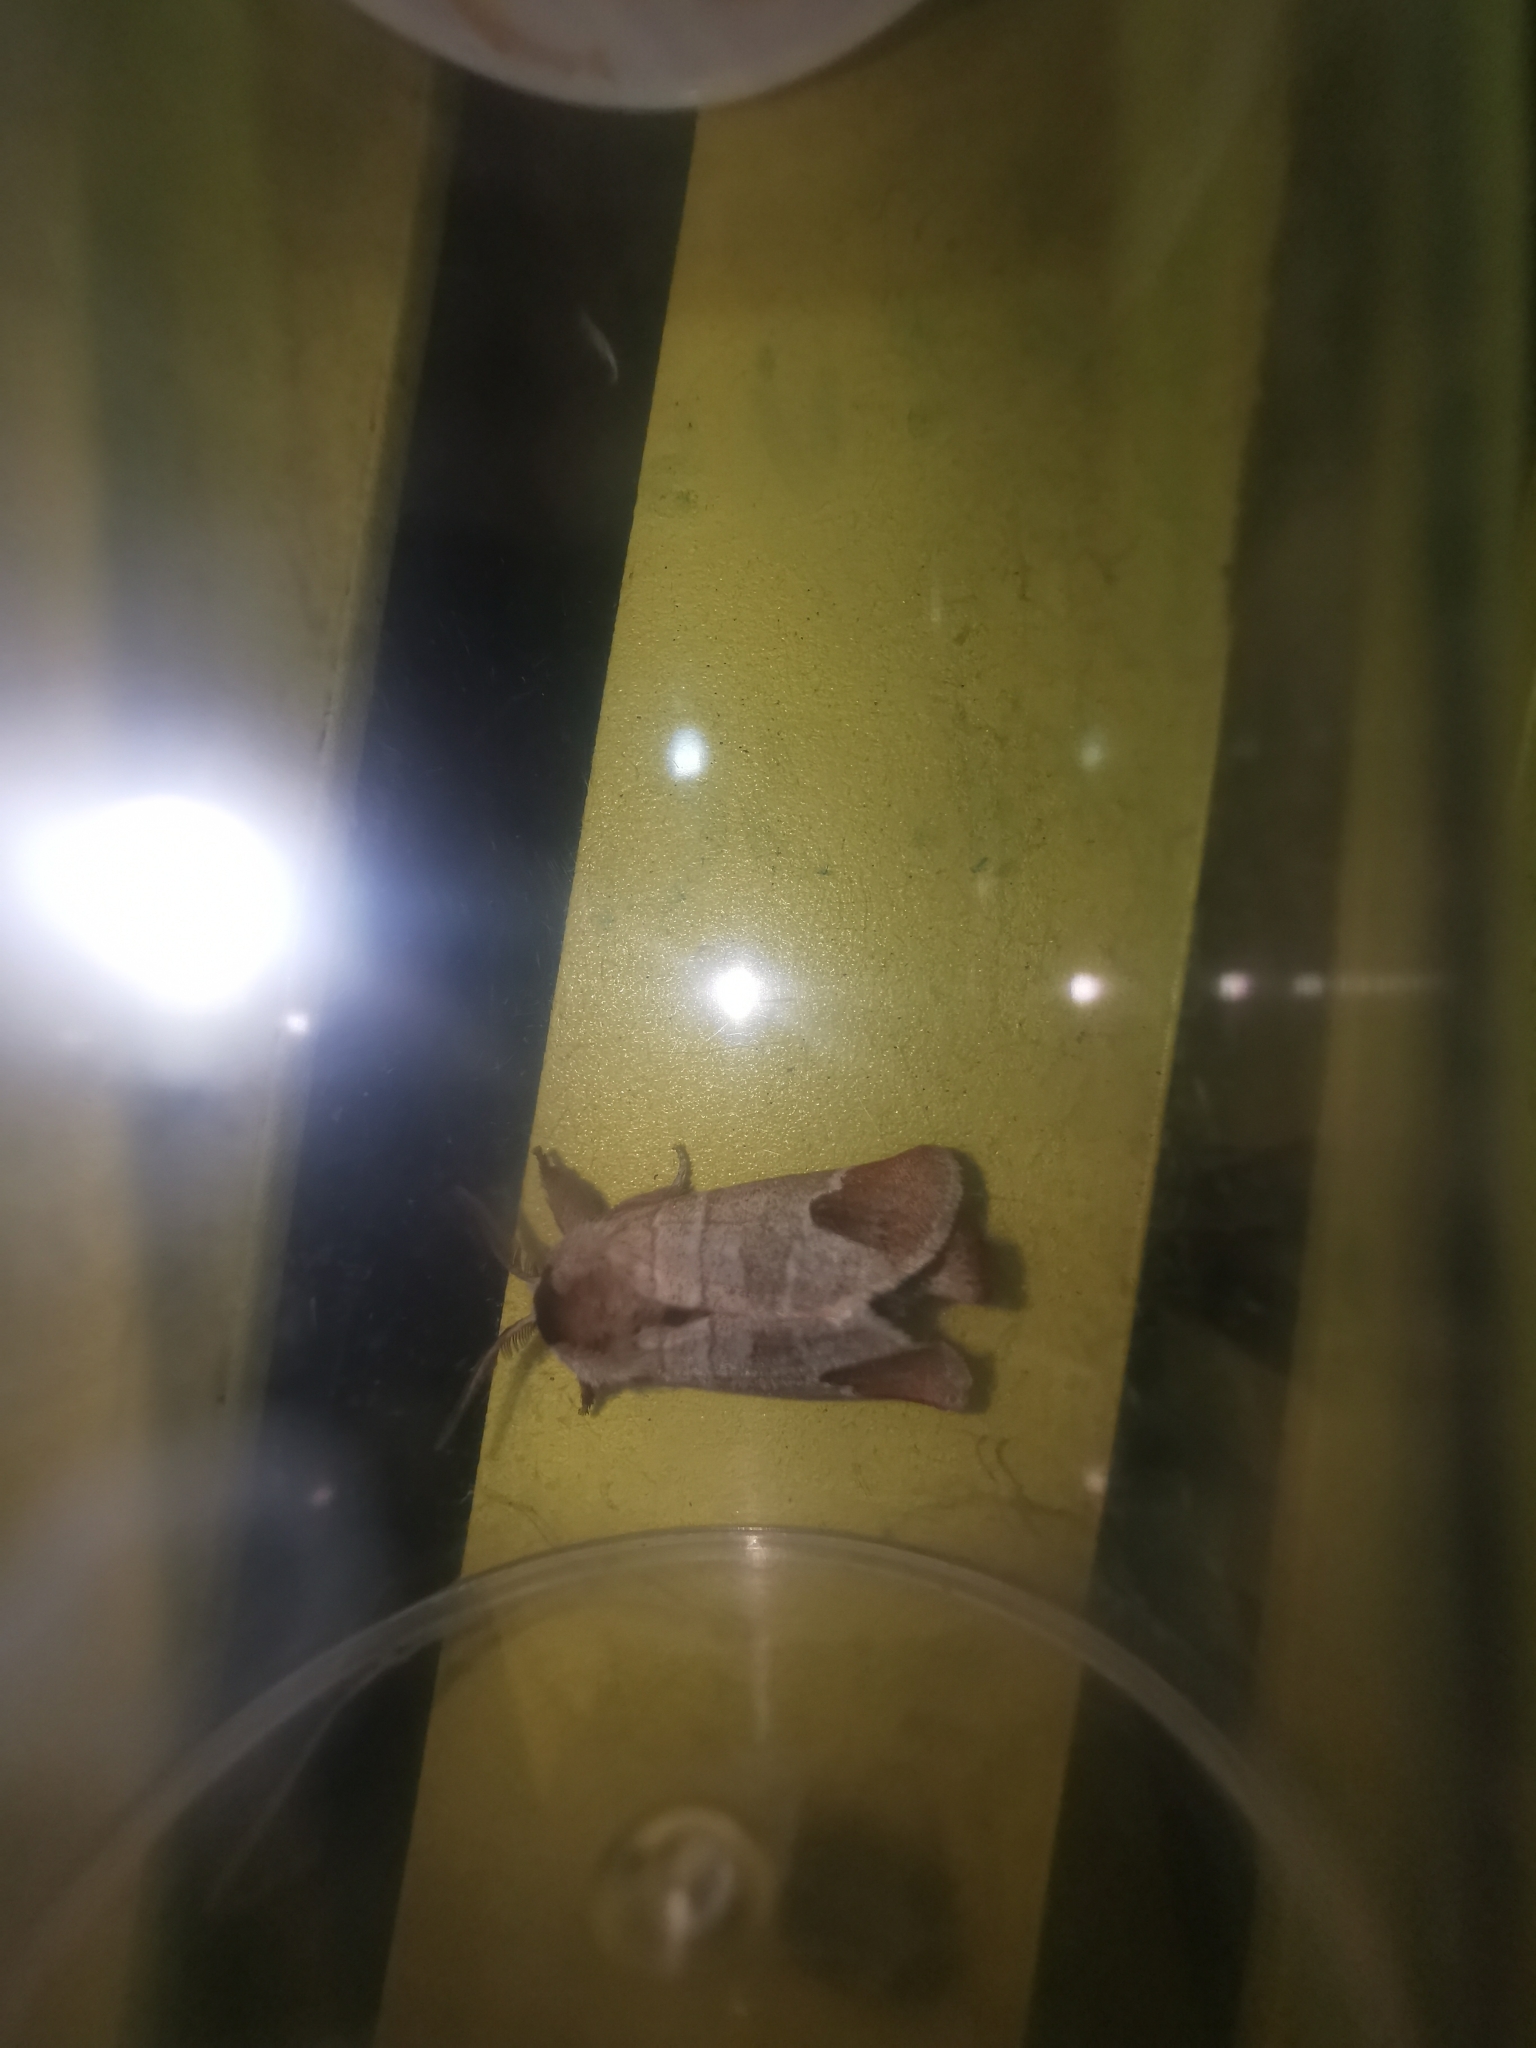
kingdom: Animalia
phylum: Arthropoda
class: Insecta
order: Lepidoptera
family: Notodontidae
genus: Clostera
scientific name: Clostera curtula
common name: Chocolate-tip
